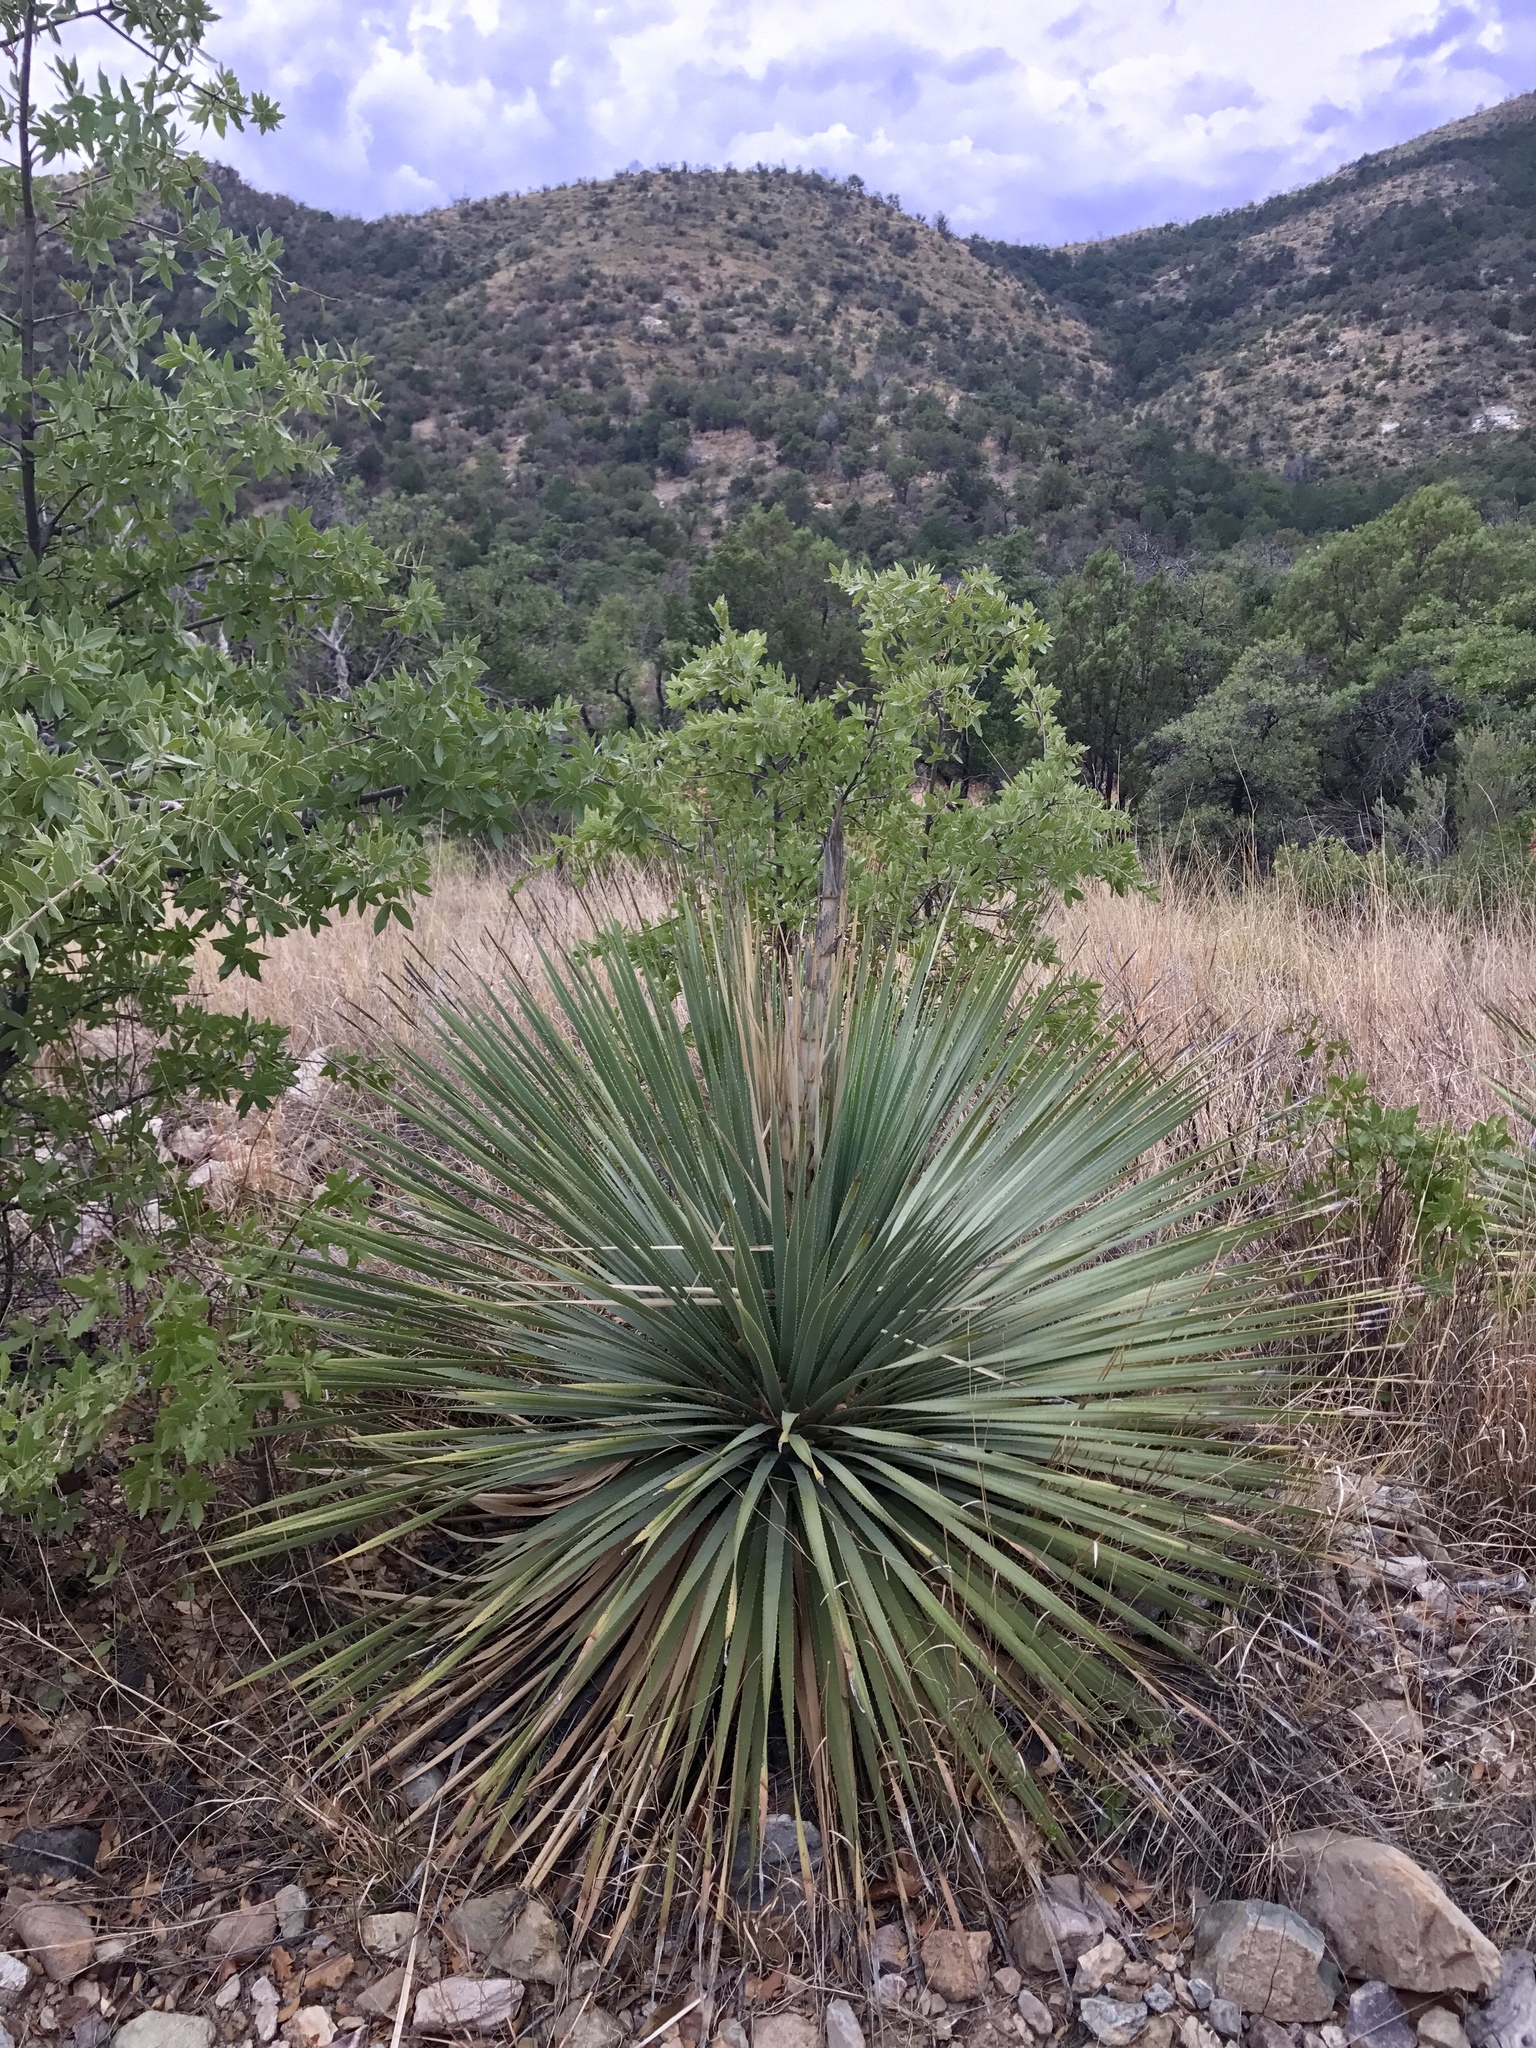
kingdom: Plantae
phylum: Tracheophyta
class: Liliopsida
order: Asparagales
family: Asparagaceae
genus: Dasylirion
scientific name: Dasylirion wheeleri
